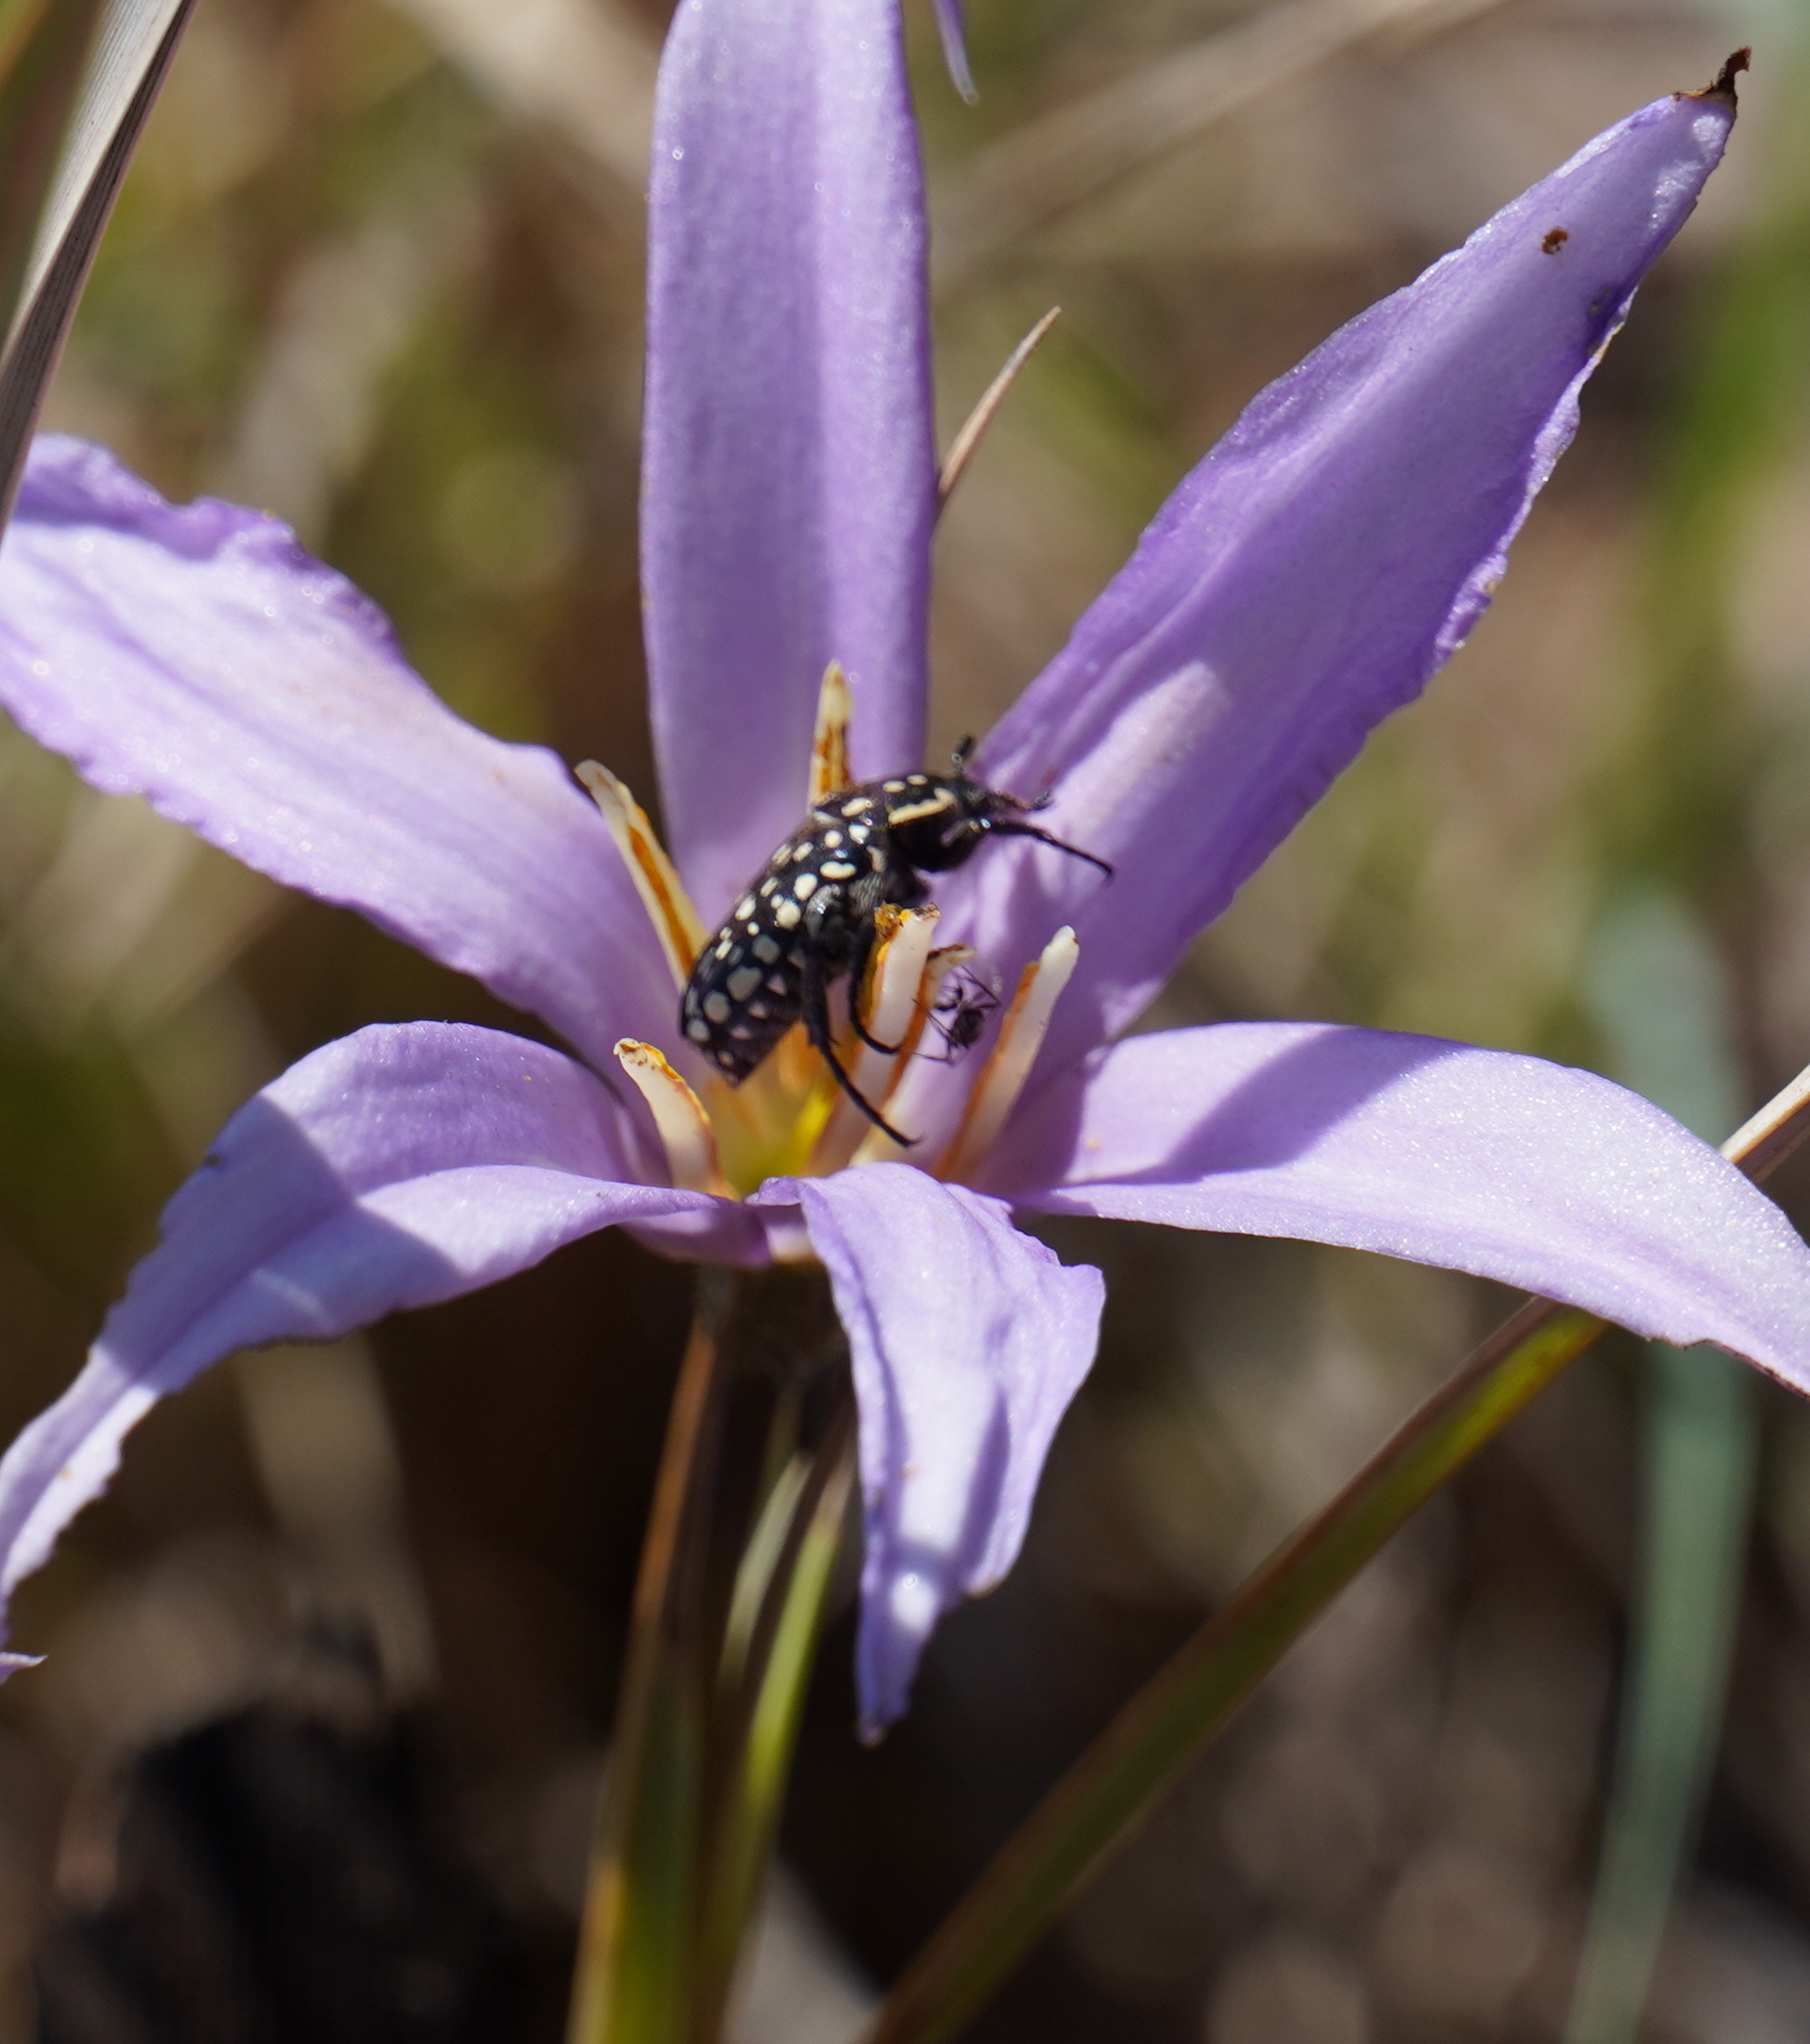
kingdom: Animalia
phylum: Arthropoda
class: Insecta
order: Coleoptera
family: Scarabaeidae
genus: Cyrtothyrea
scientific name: Cyrtothyrea testaceoguttata
